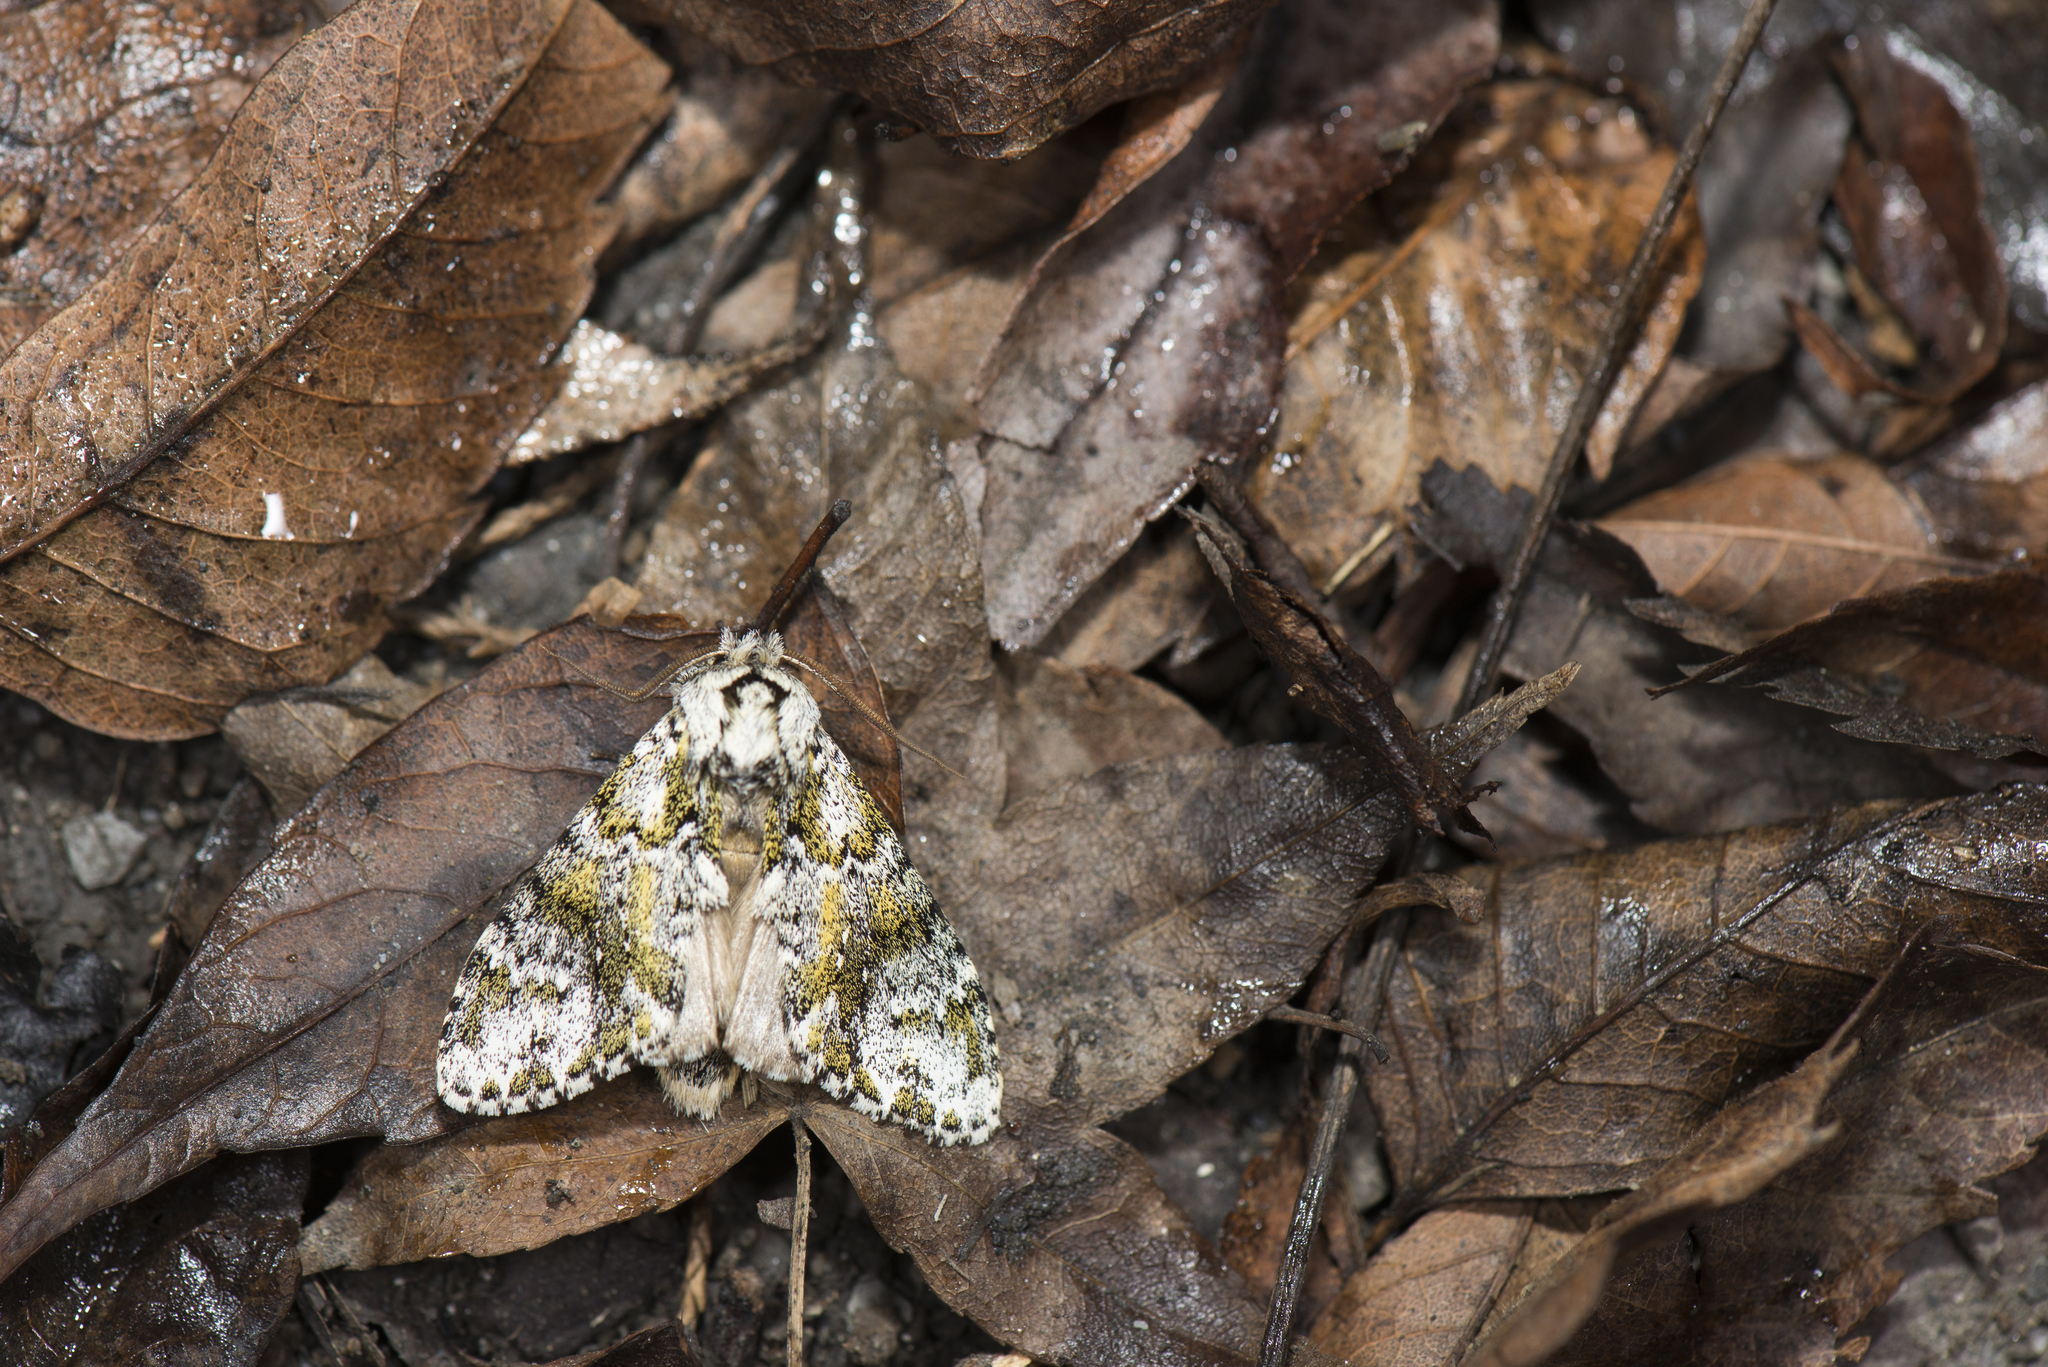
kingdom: Animalia
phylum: Arthropoda
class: Insecta
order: Lepidoptera
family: Notodontidae
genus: Pheosiopsis
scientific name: Pheosiopsis lusciniola
